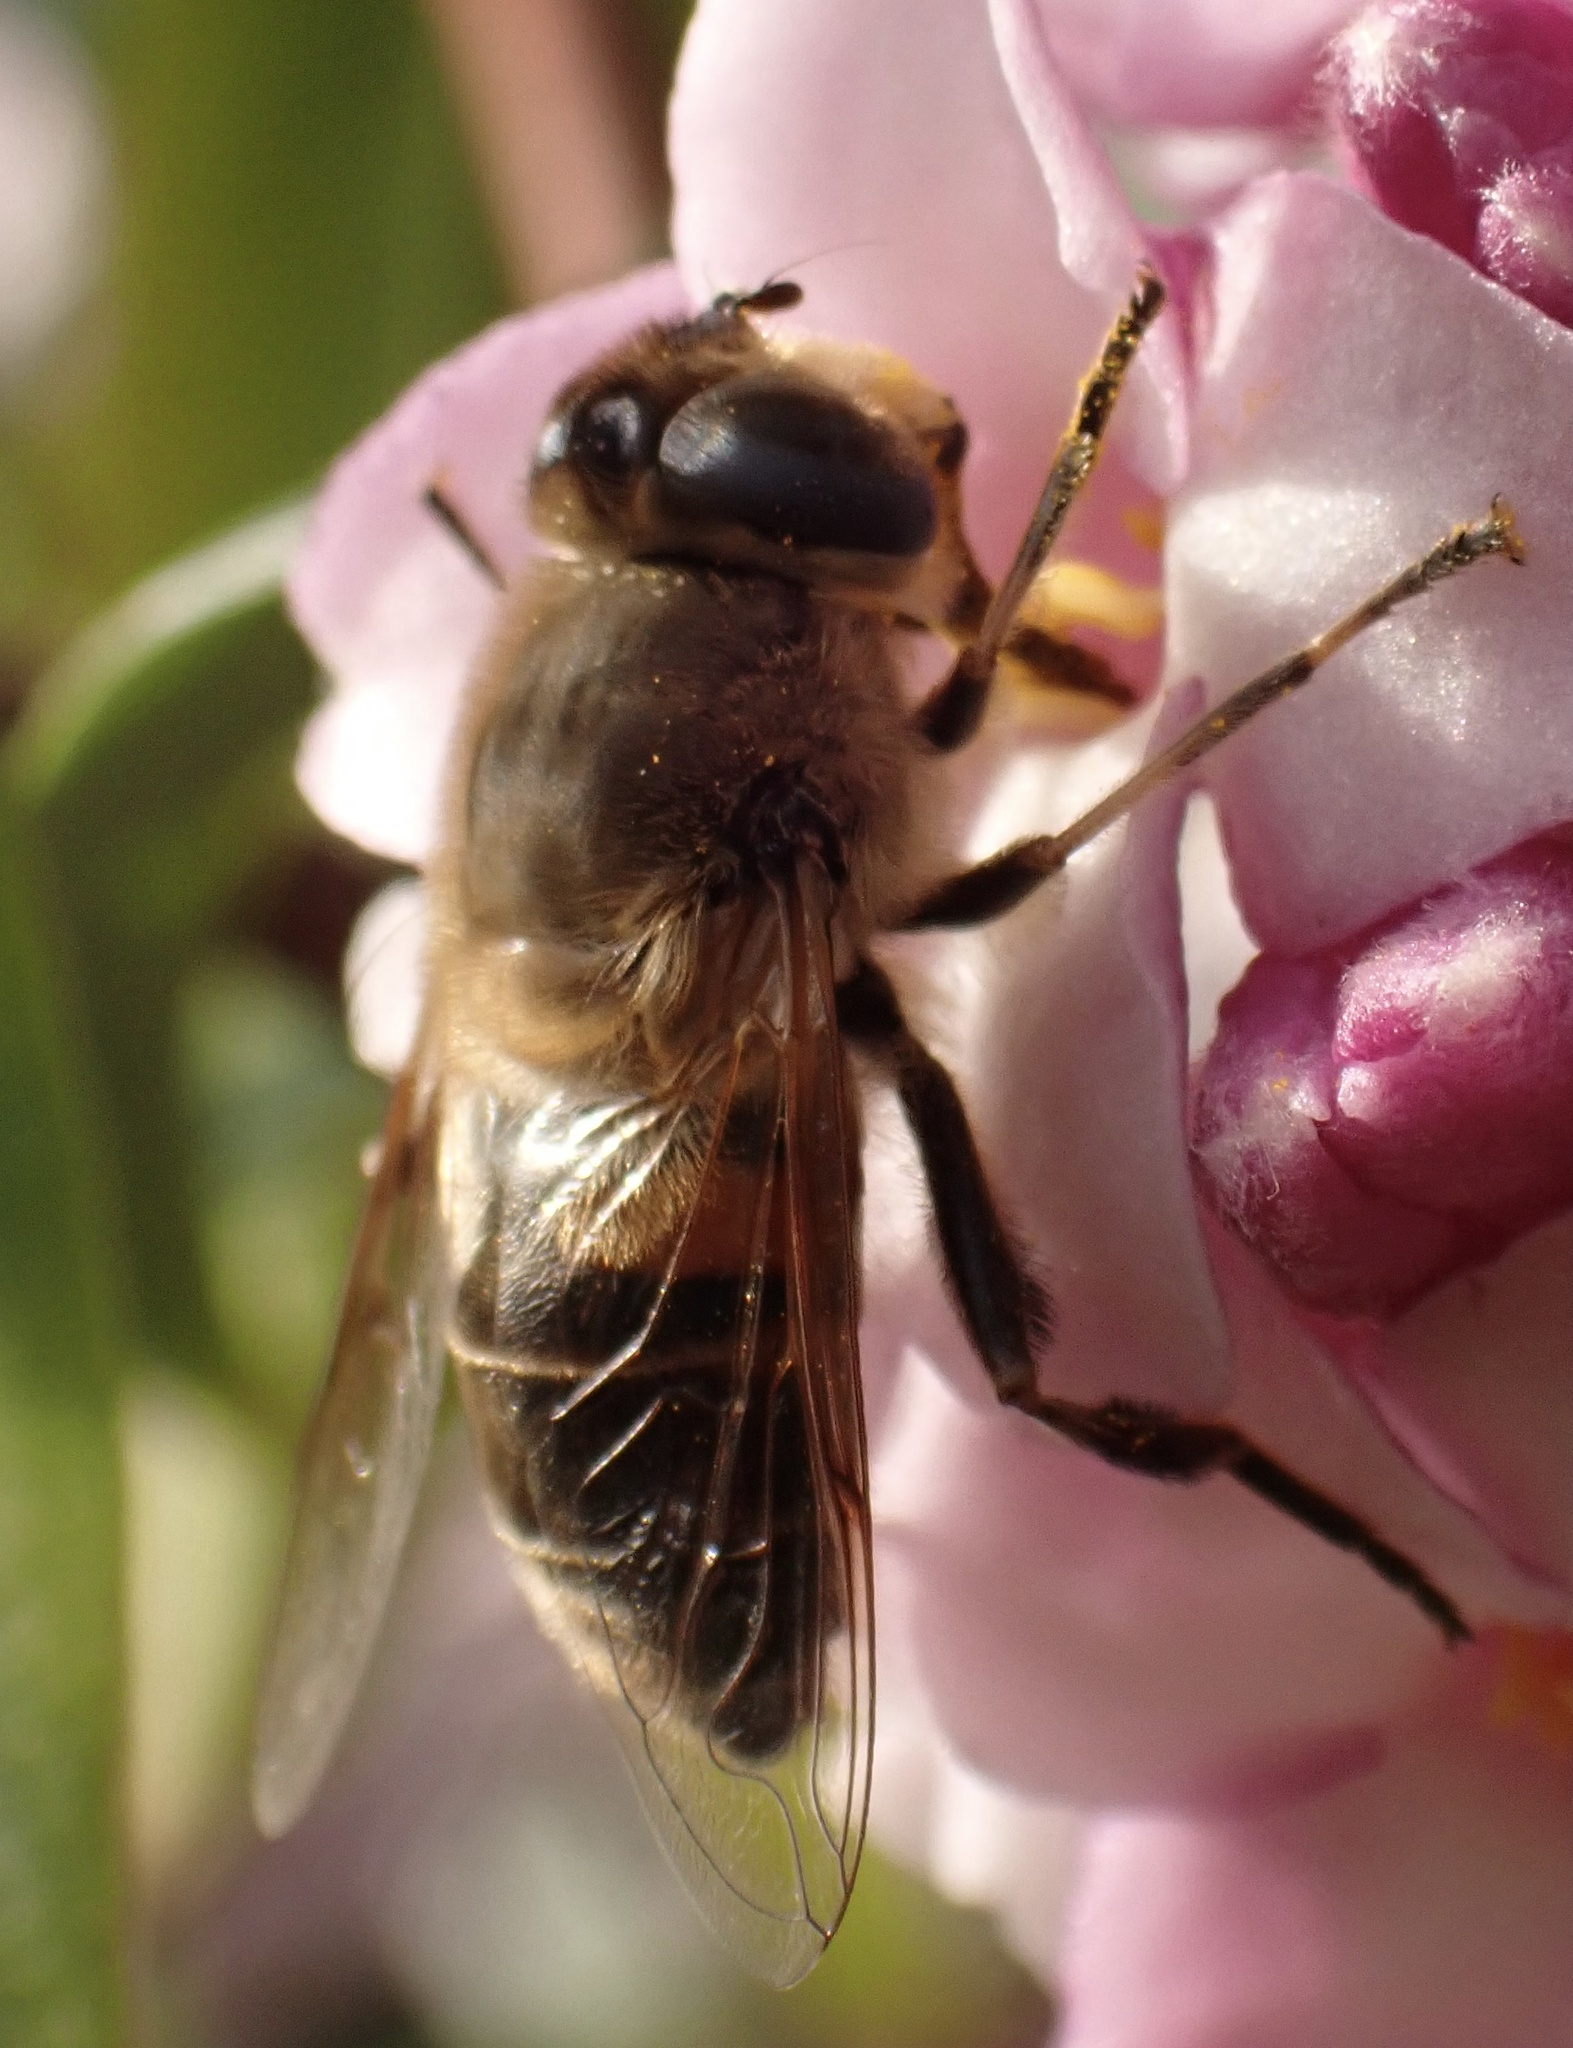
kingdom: Animalia
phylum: Arthropoda
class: Insecta
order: Diptera
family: Syrphidae
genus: Eristalis
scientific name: Eristalis tenax
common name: Drone fly
